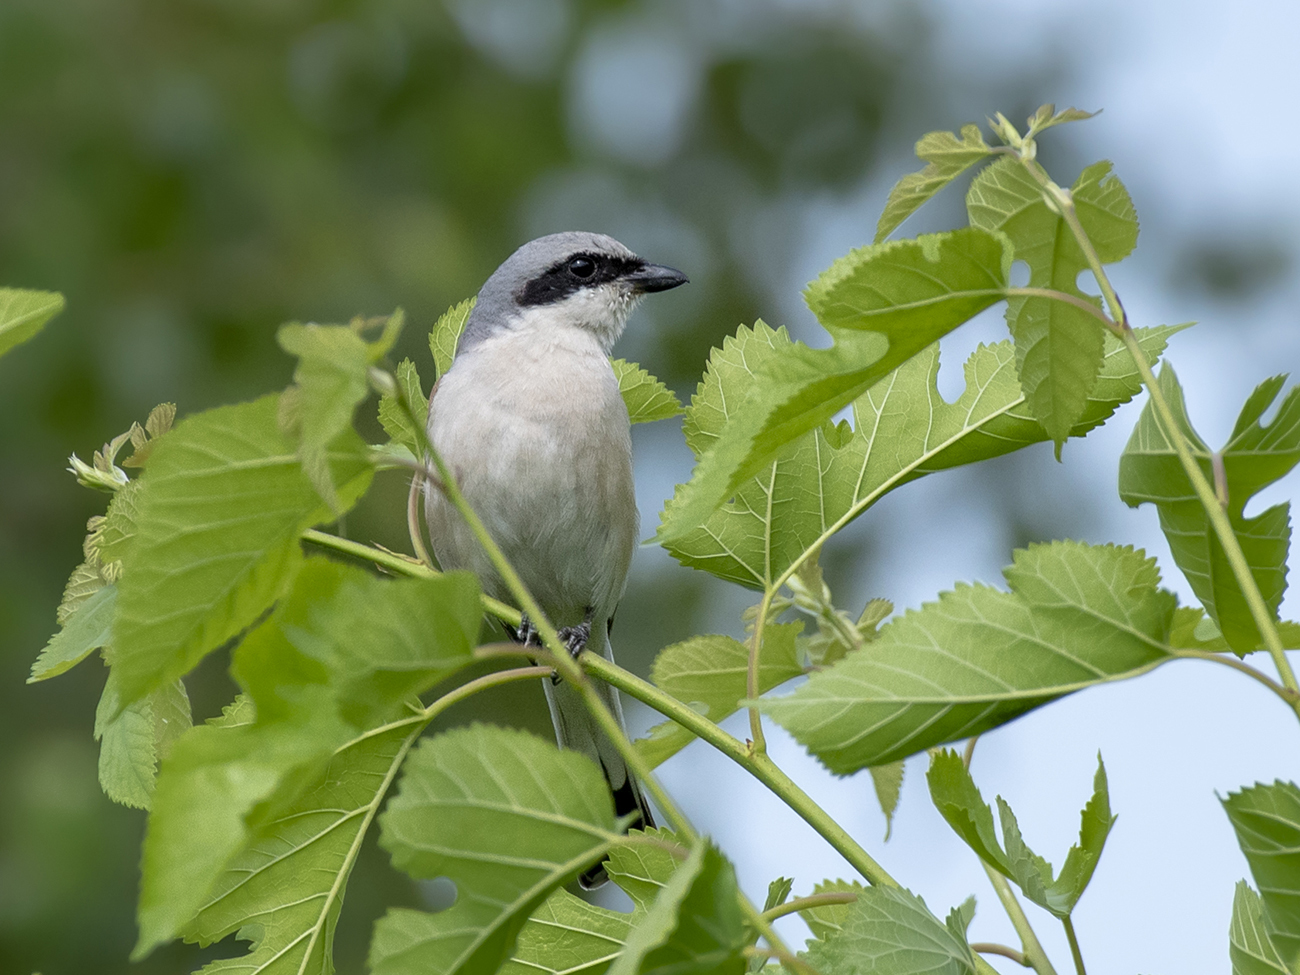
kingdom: Animalia
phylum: Chordata
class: Aves
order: Passeriformes
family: Laniidae
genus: Lanius
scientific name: Lanius collurio
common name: Red-backed shrike
